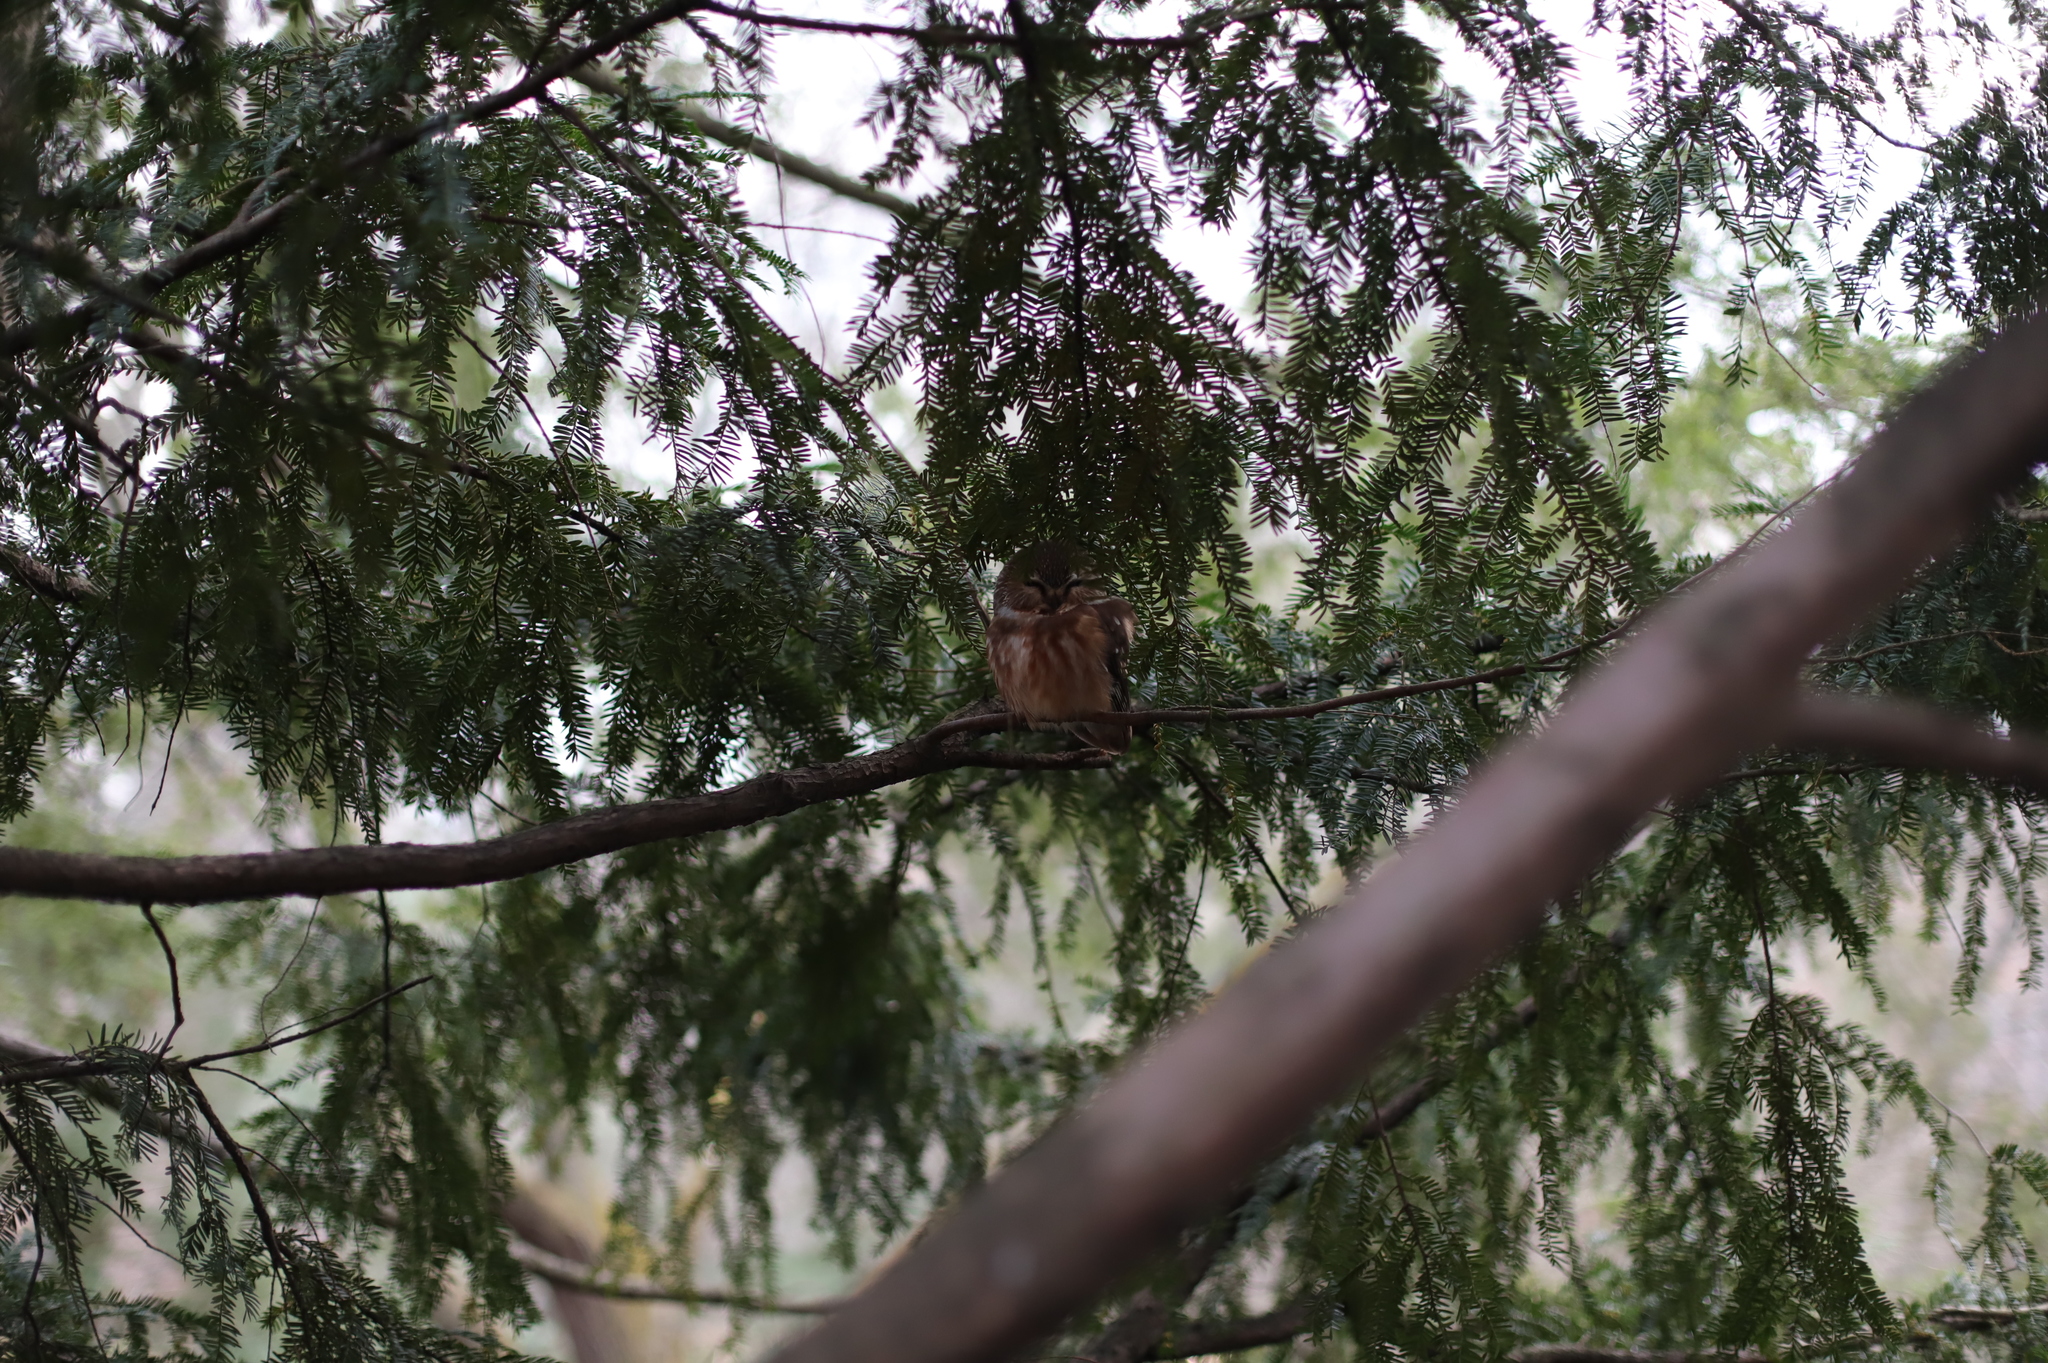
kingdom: Animalia
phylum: Chordata
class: Aves
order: Strigiformes
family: Strigidae
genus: Aegolius
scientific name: Aegolius acadicus
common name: Northern saw-whet owl
